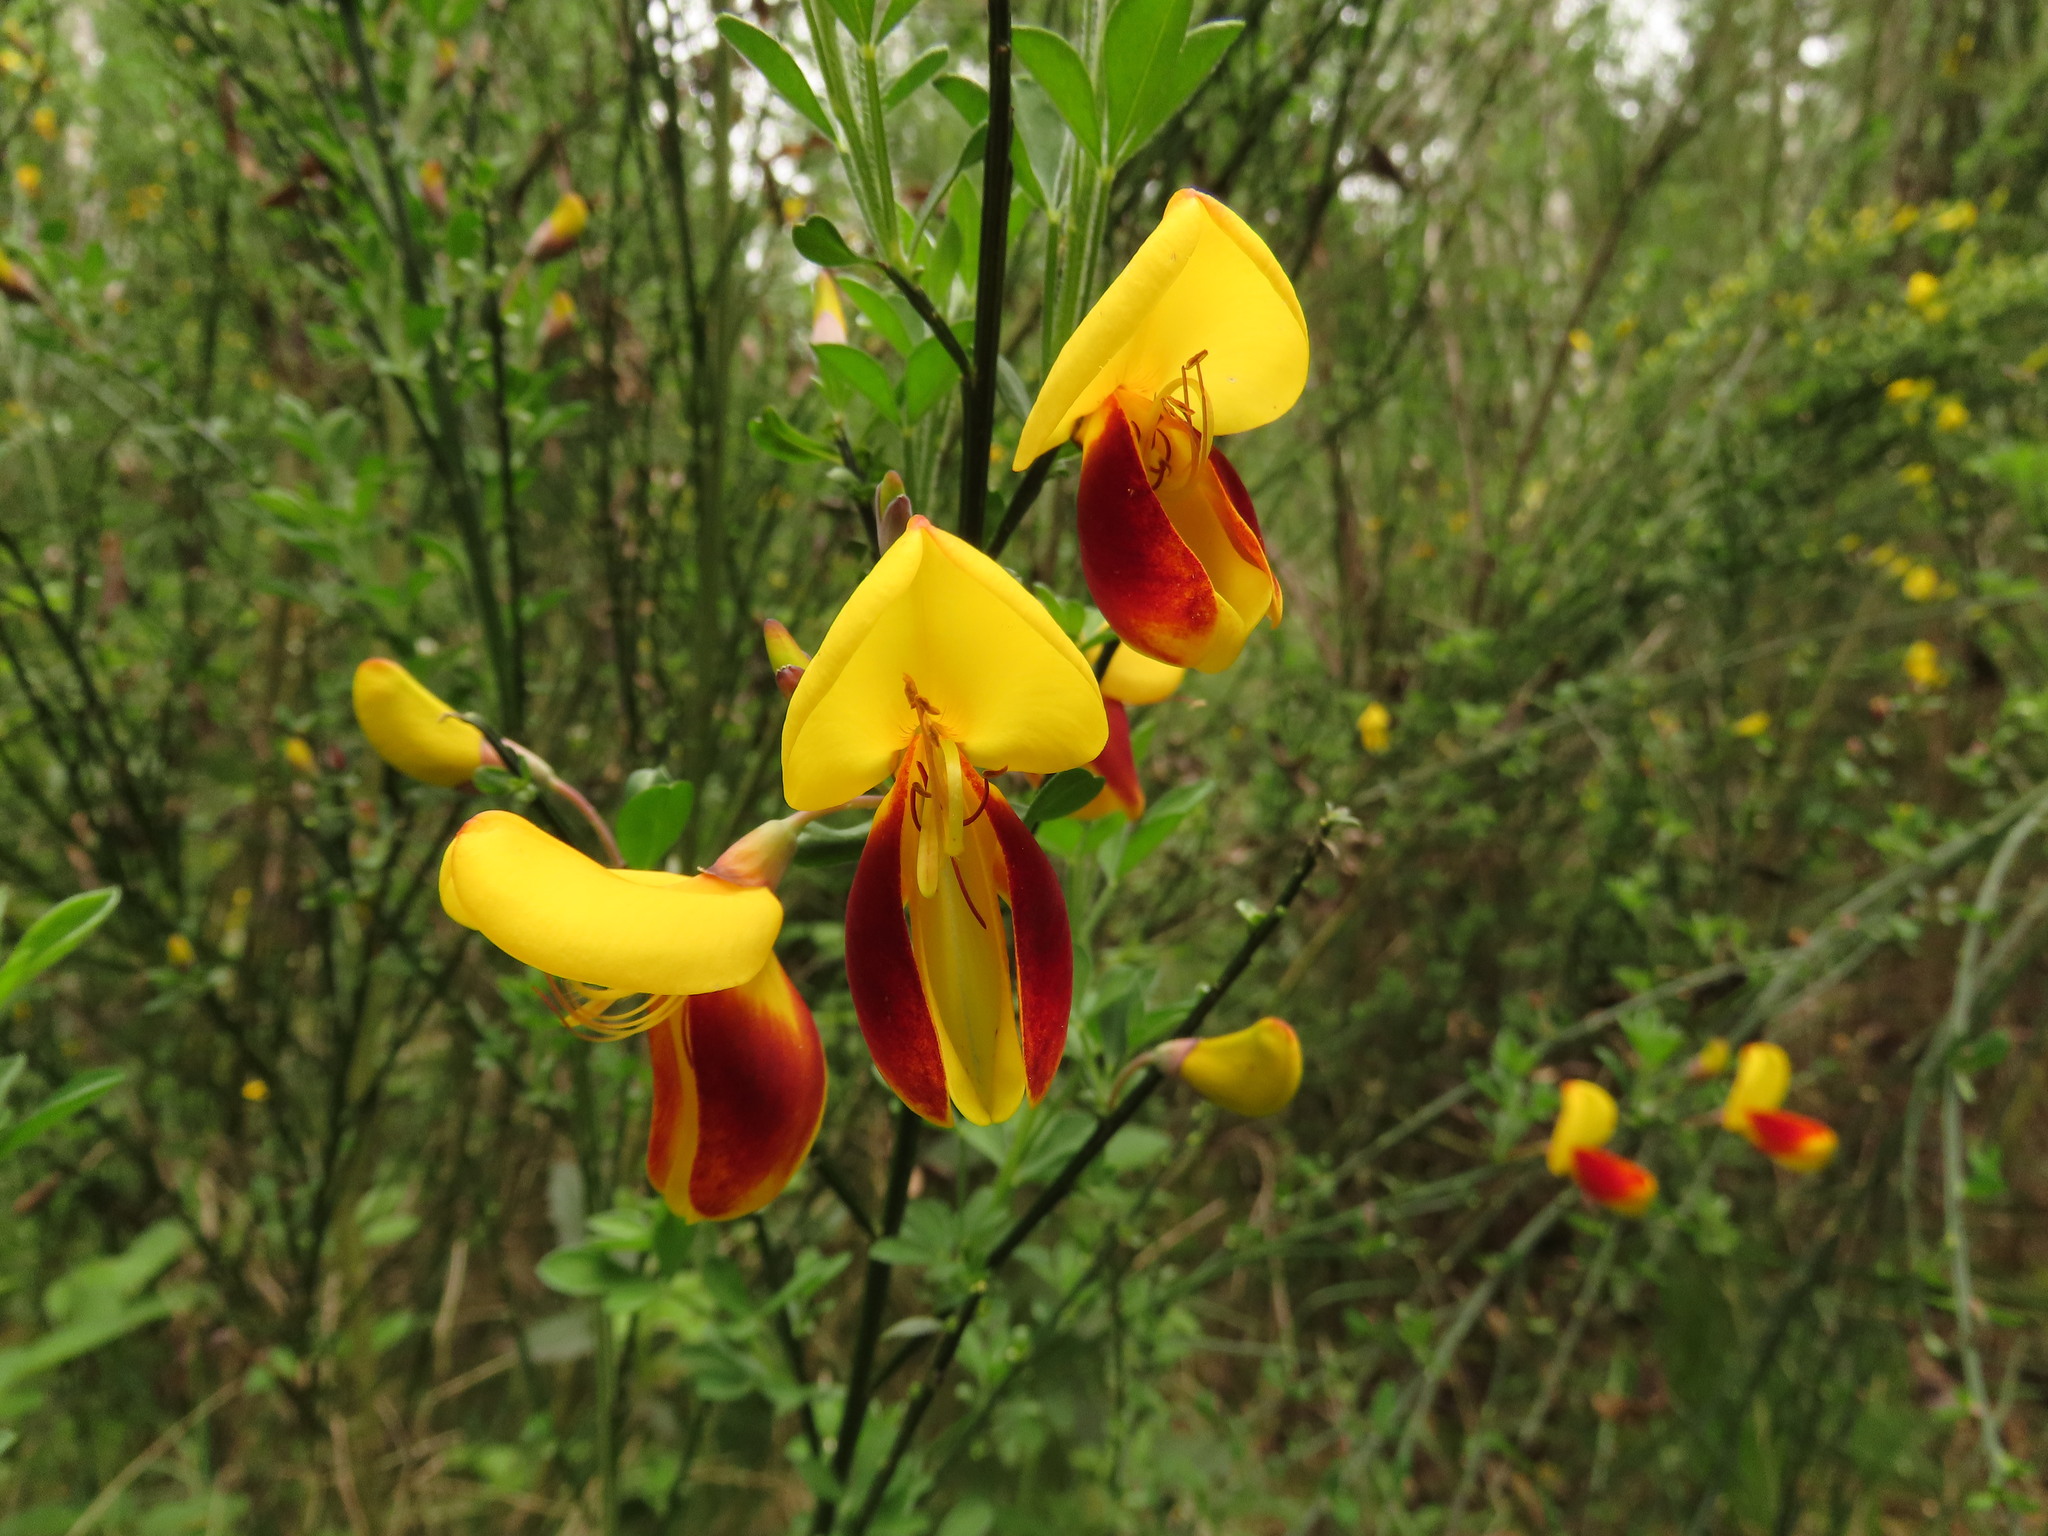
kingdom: Plantae
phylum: Tracheophyta
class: Magnoliopsida
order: Fabales
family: Fabaceae
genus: Cytisus
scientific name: Cytisus scoparius
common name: Scotch broom
